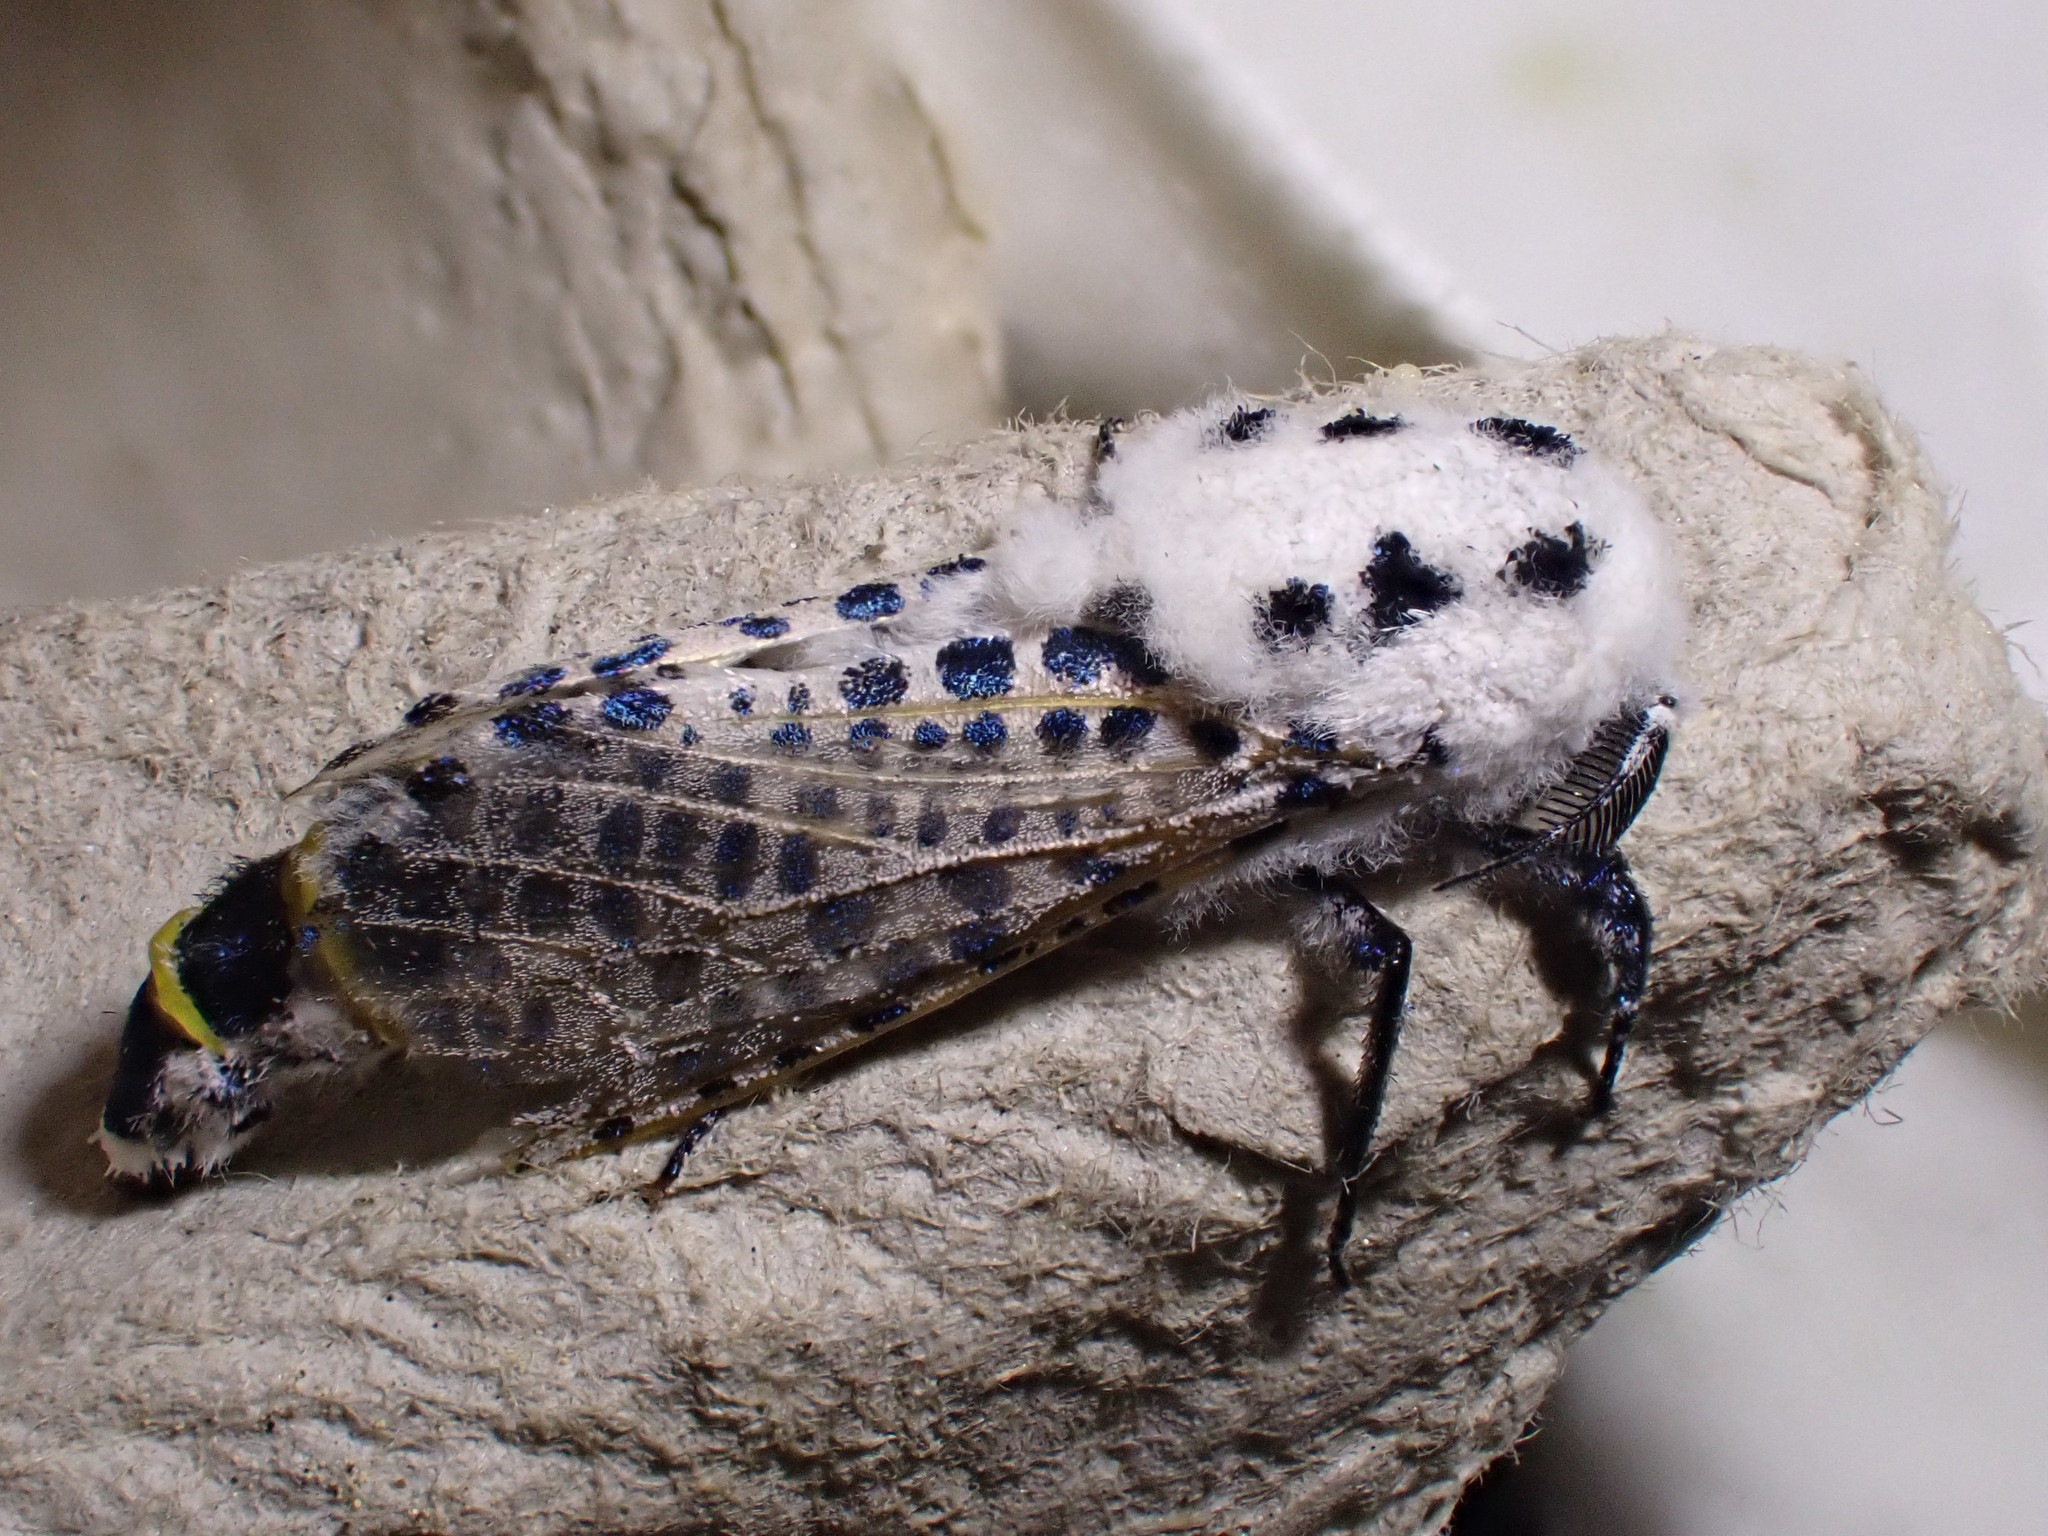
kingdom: Animalia
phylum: Arthropoda
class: Insecta
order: Lepidoptera
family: Cossidae
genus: Zeuzera
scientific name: Zeuzera pyrina
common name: Leopard moth
